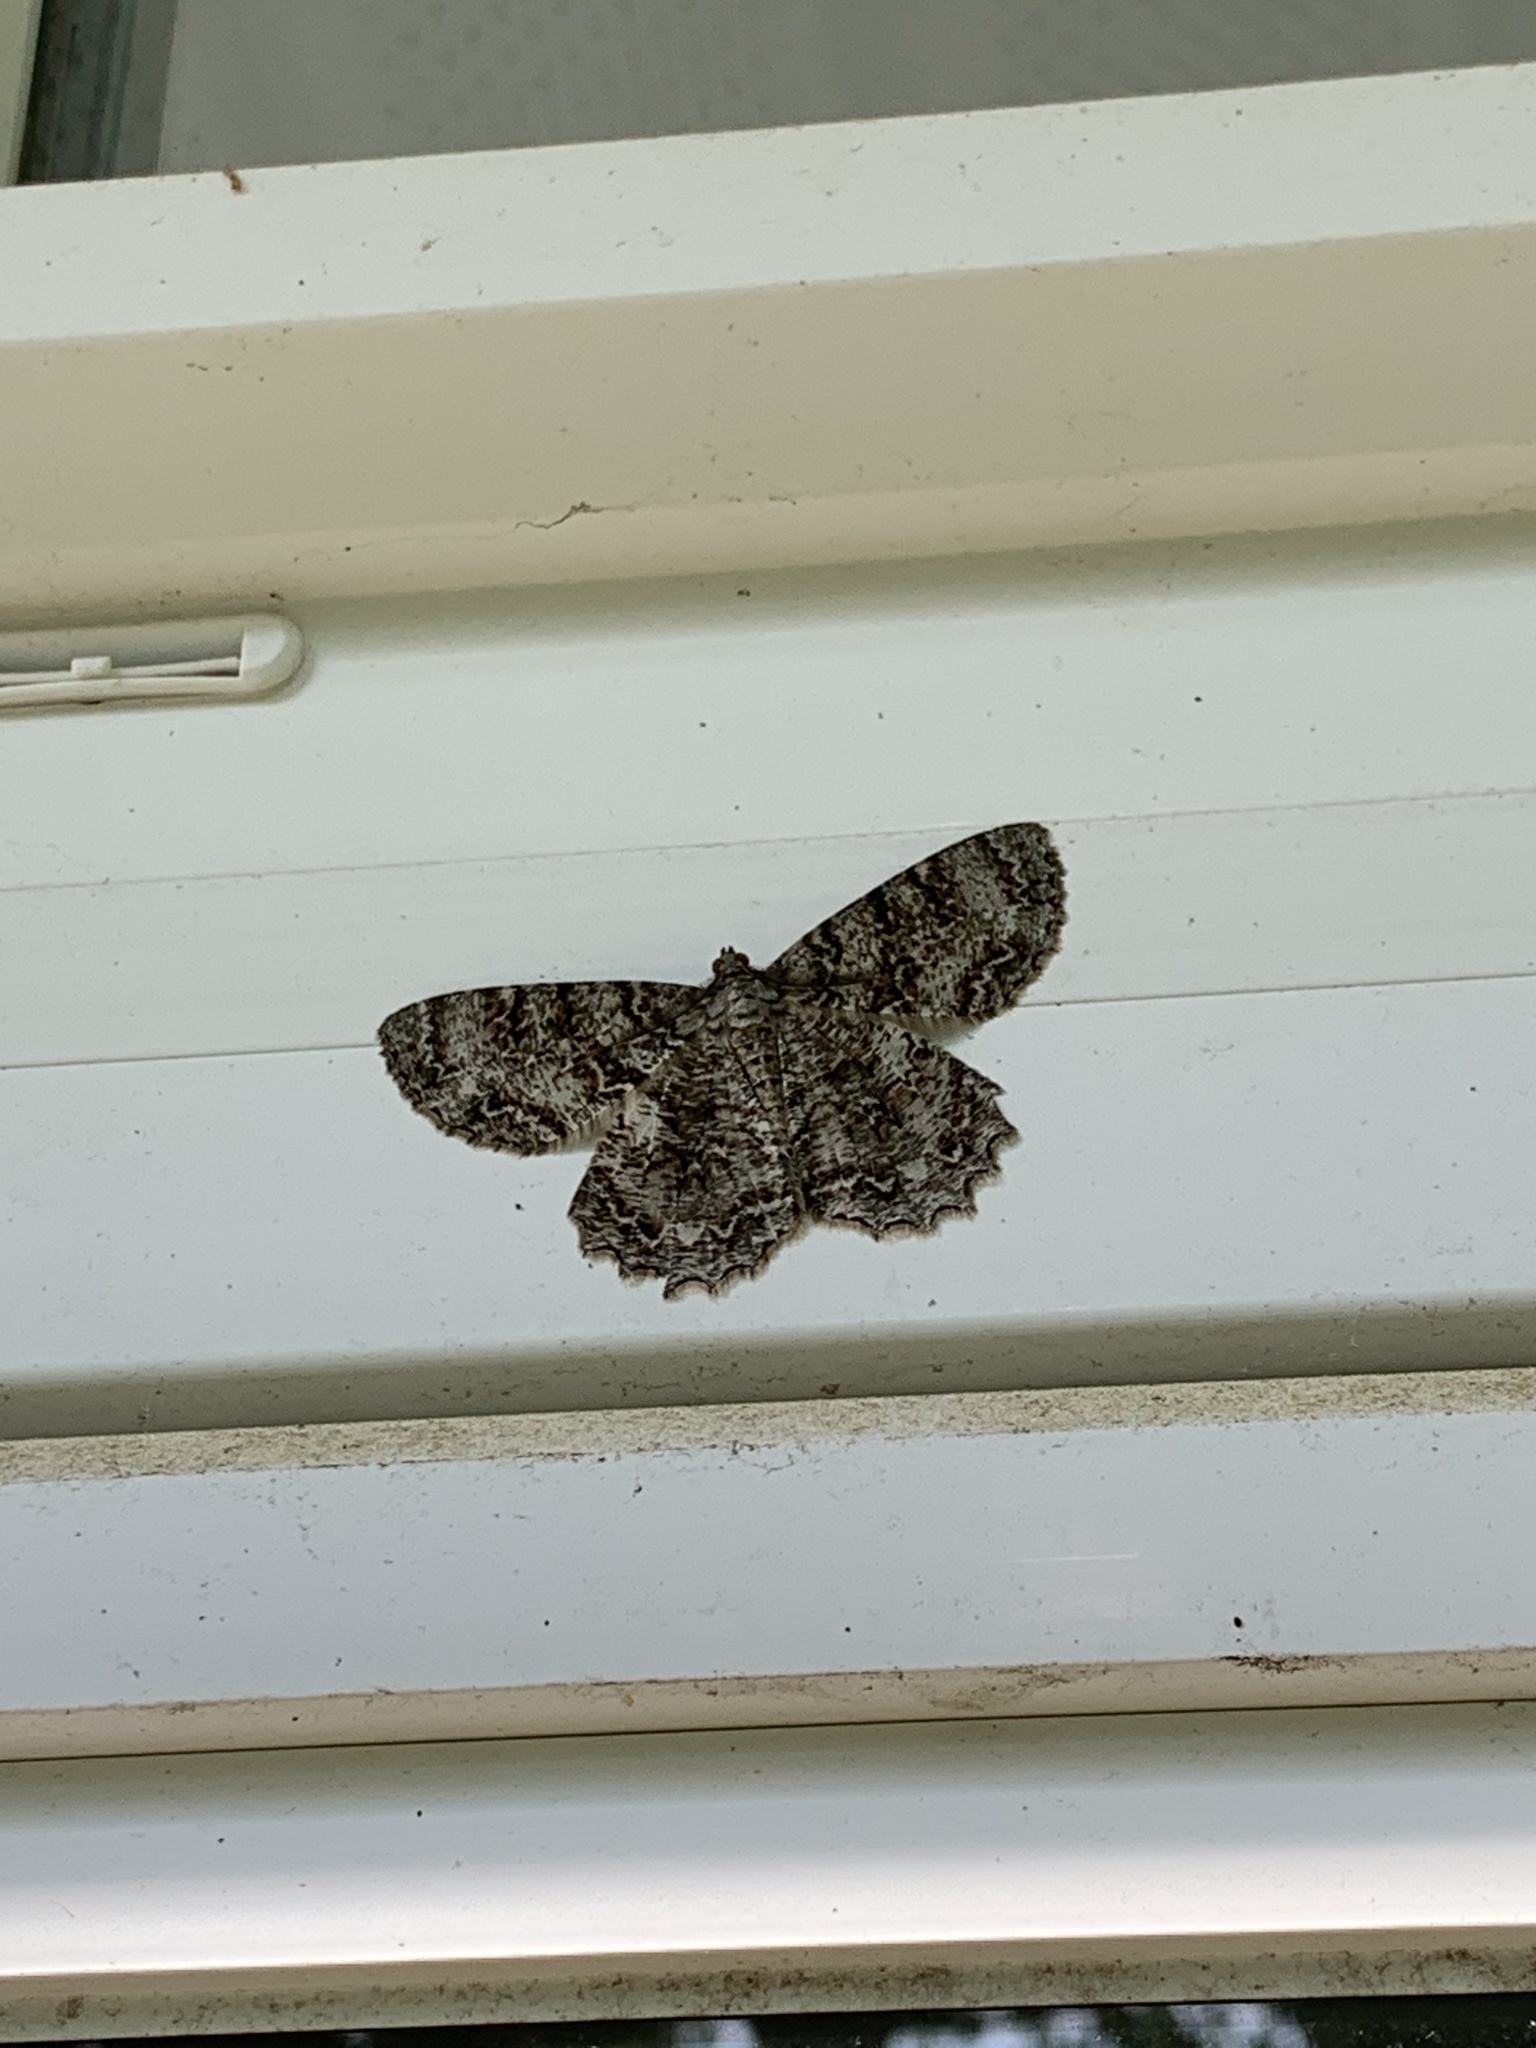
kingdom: Animalia
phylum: Arthropoda
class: Insecta
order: Lepidoptera
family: Geometridae
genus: Epimecis
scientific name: Epimecis hortaria
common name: Tulip-tree beauty
